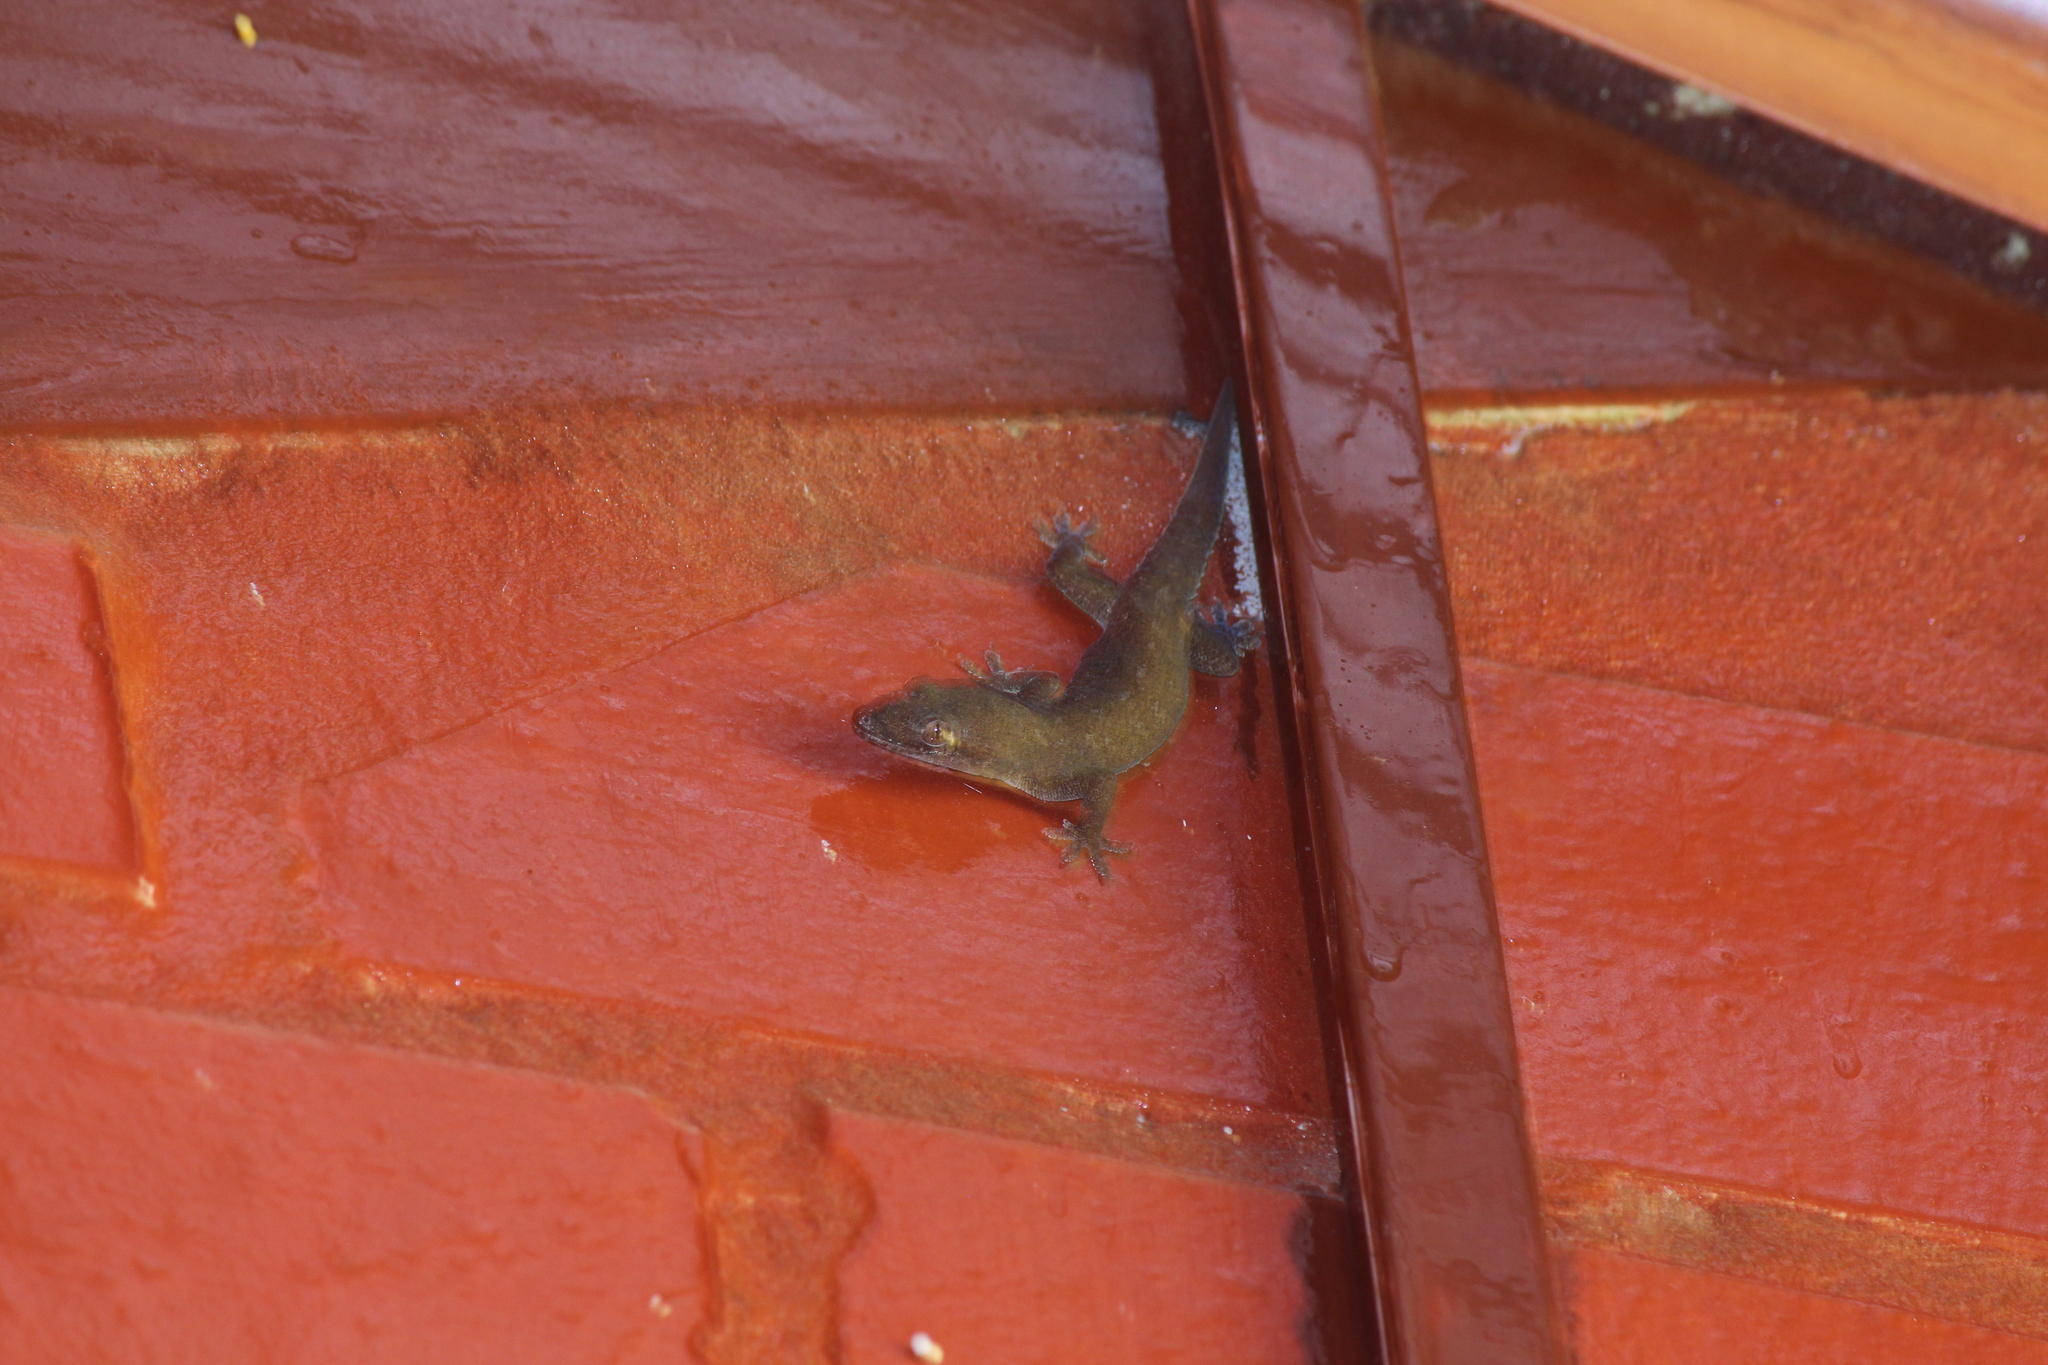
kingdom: Animalia
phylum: Chordata
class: Squamata
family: Gekkonidae
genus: Hemidactylus
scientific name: Hemidactylus frenatus
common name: Common house gecko
